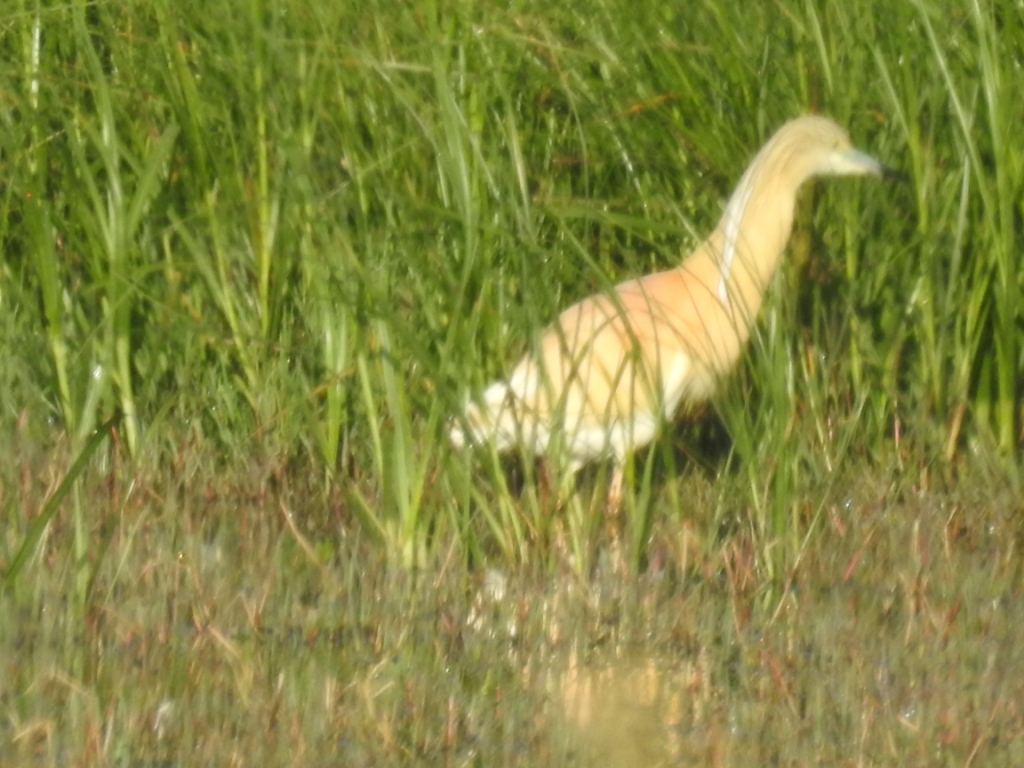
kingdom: Animalia
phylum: Chordata
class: Aves
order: Pelecaniformes
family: Ardeidae
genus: Ardeola
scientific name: Ardeola ralloides
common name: Squacco heron
